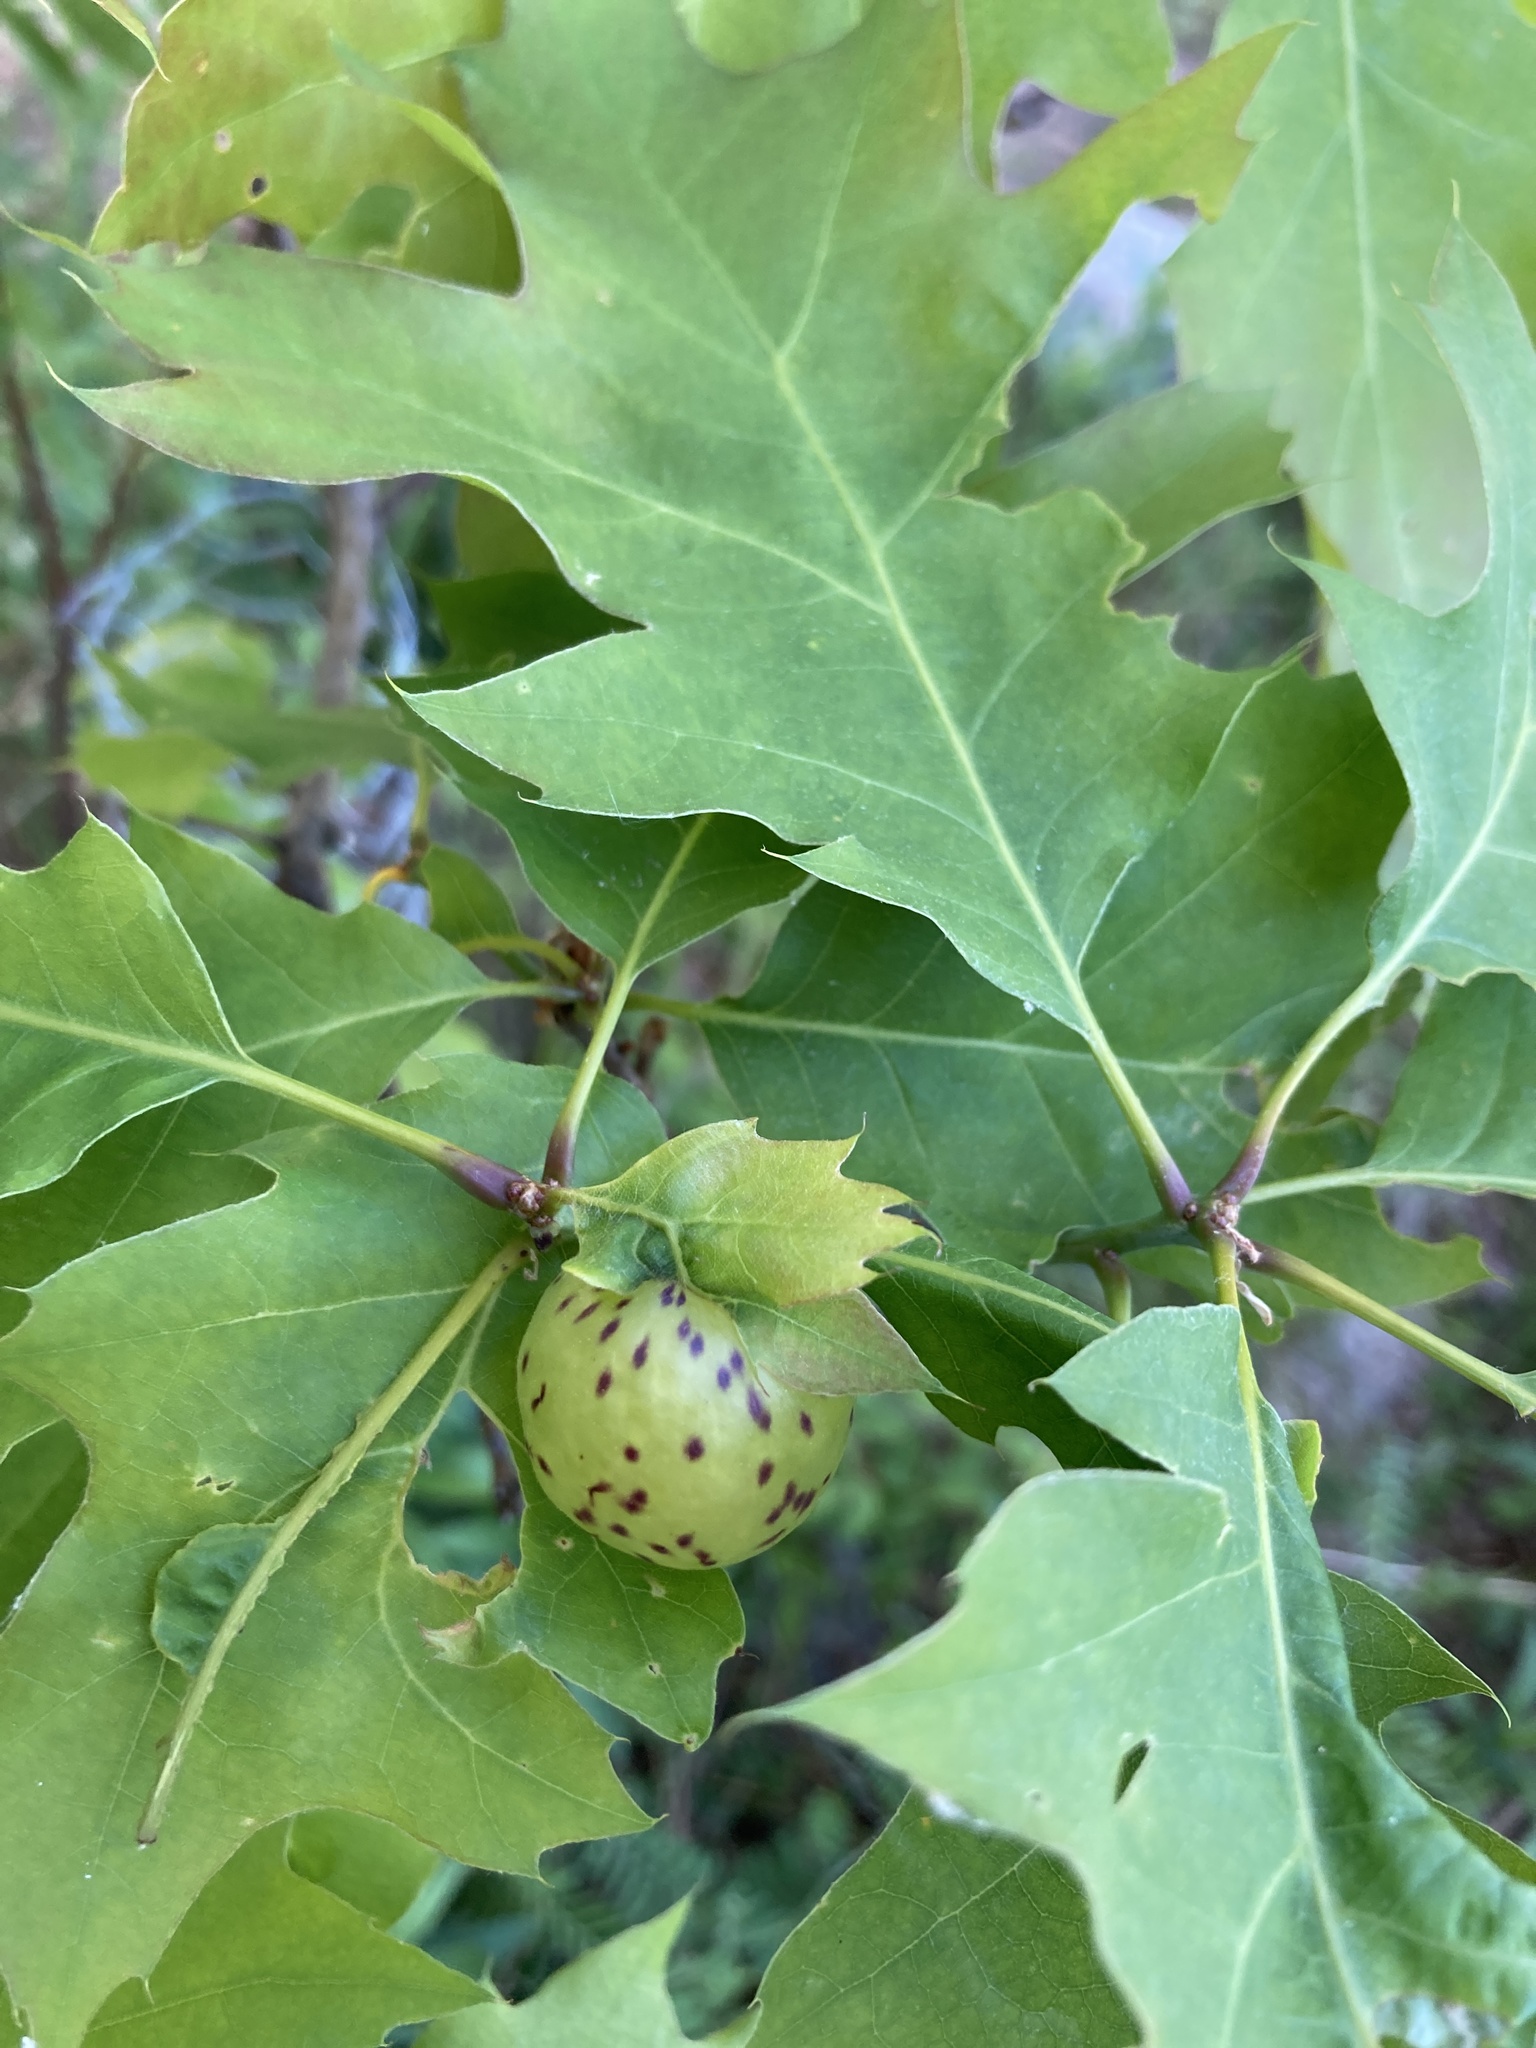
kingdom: Animalia
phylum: Arthropoda
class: Insecta
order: Hymenoptera
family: Cynipidae
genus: Amphibolips
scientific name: Amphibolips
